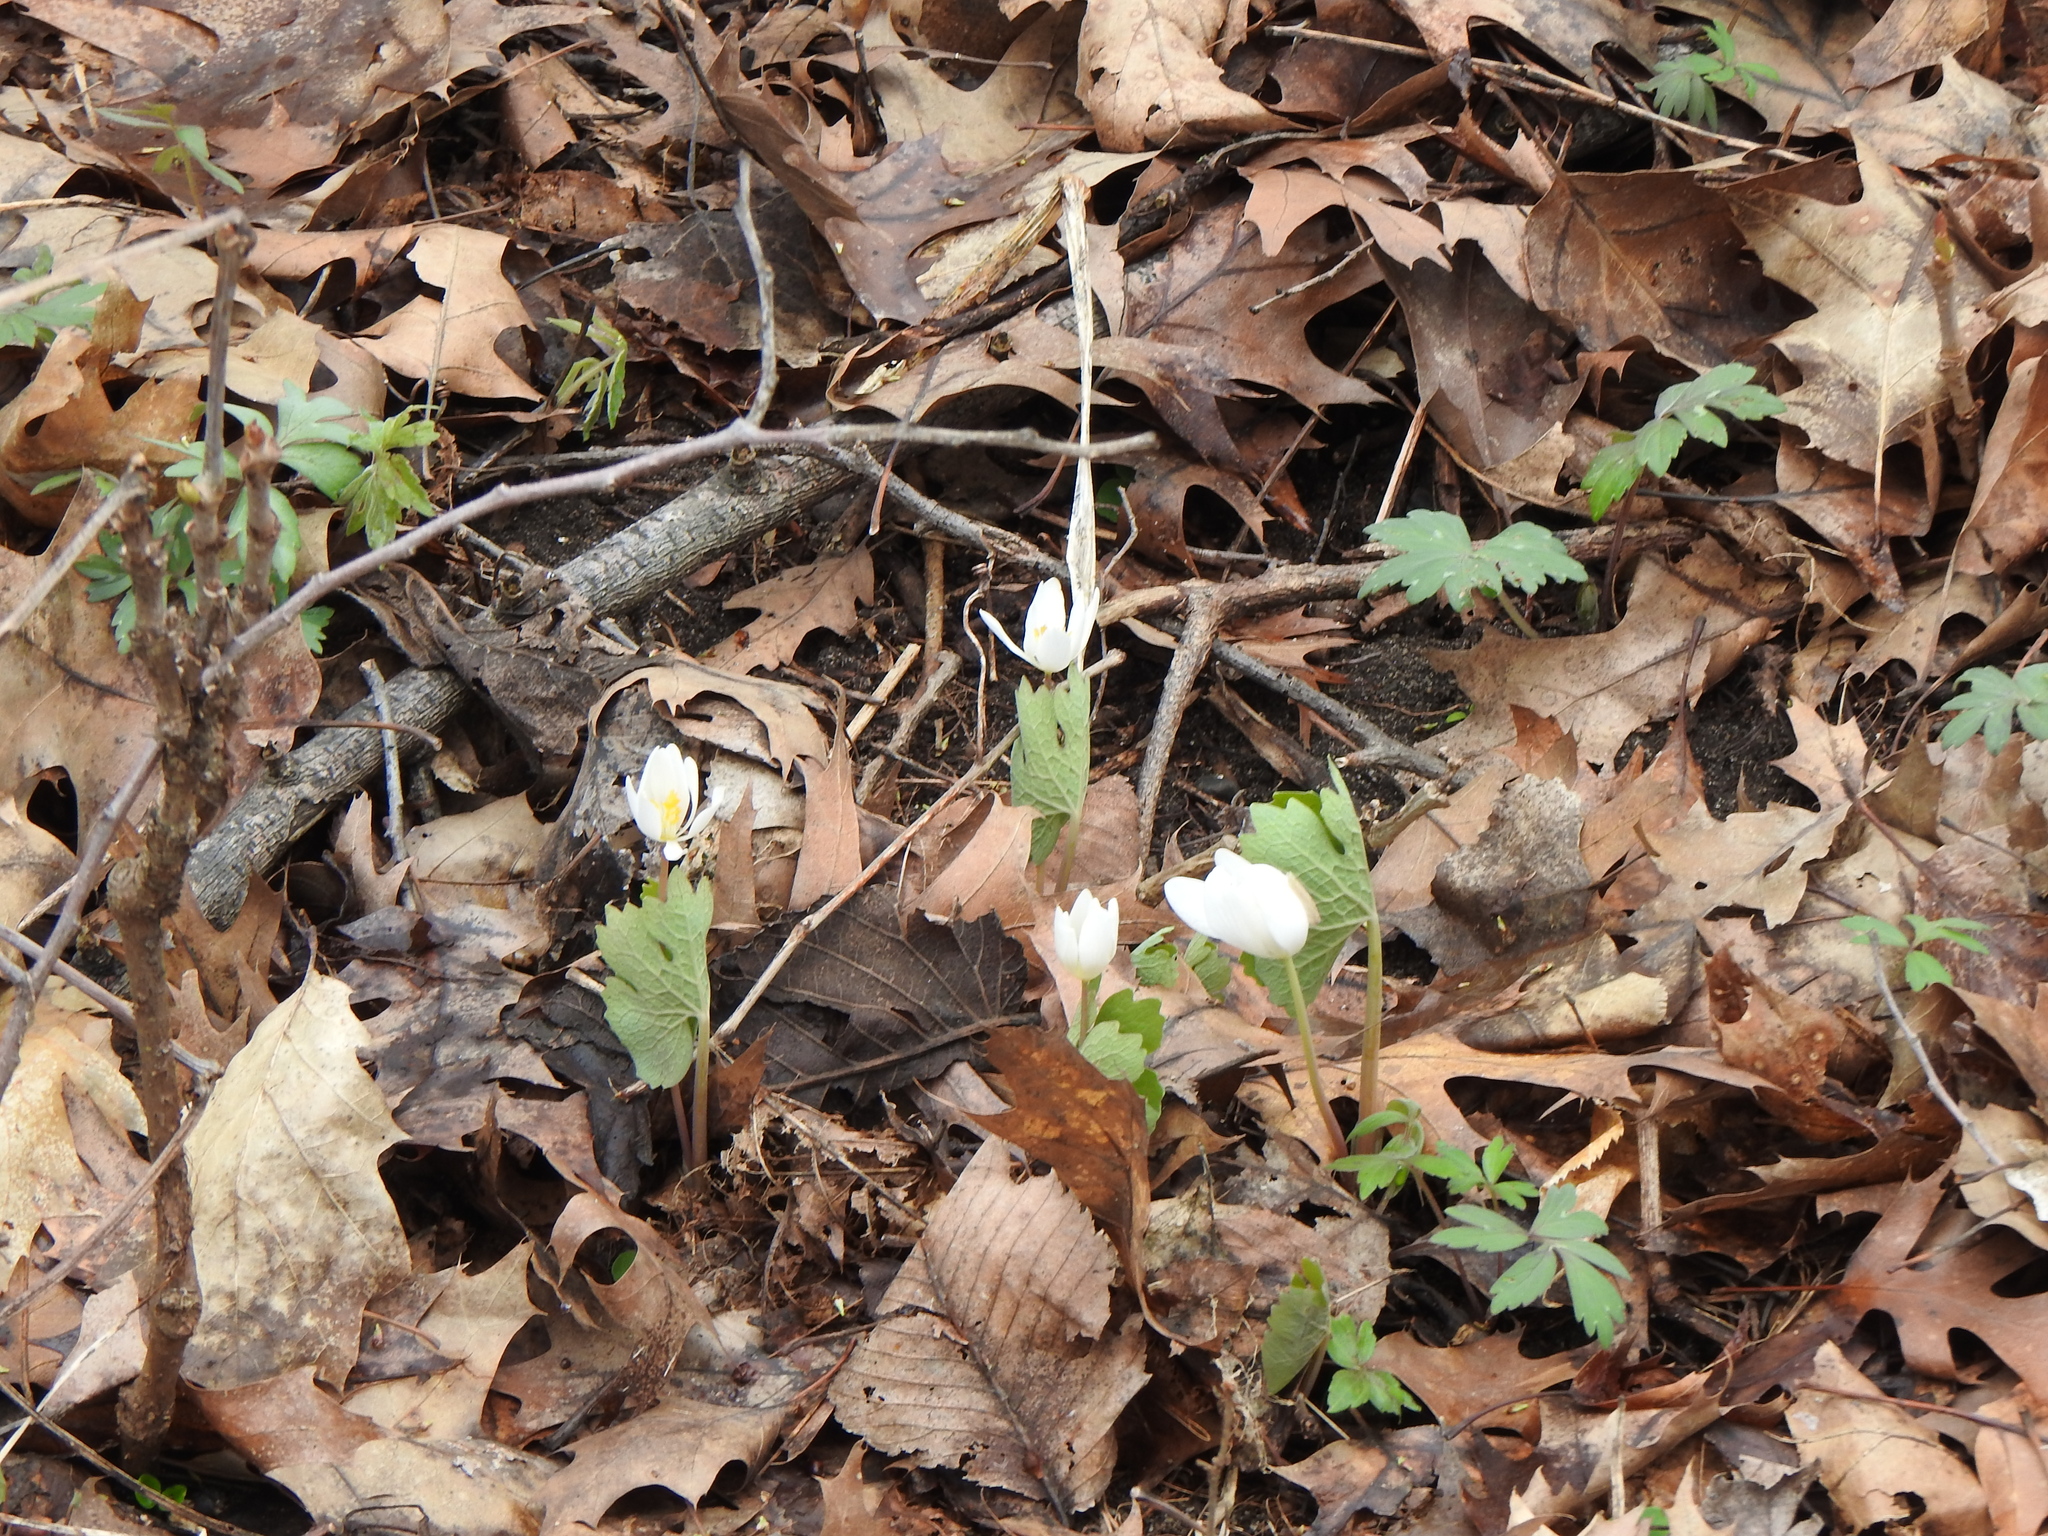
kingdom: Plantae
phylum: Tracheophyta
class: Magnoliopsida
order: Ranunculales
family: Papaveraceae
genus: Sanguinaria
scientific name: Sanguinaria canadensis
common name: Bloodroot
